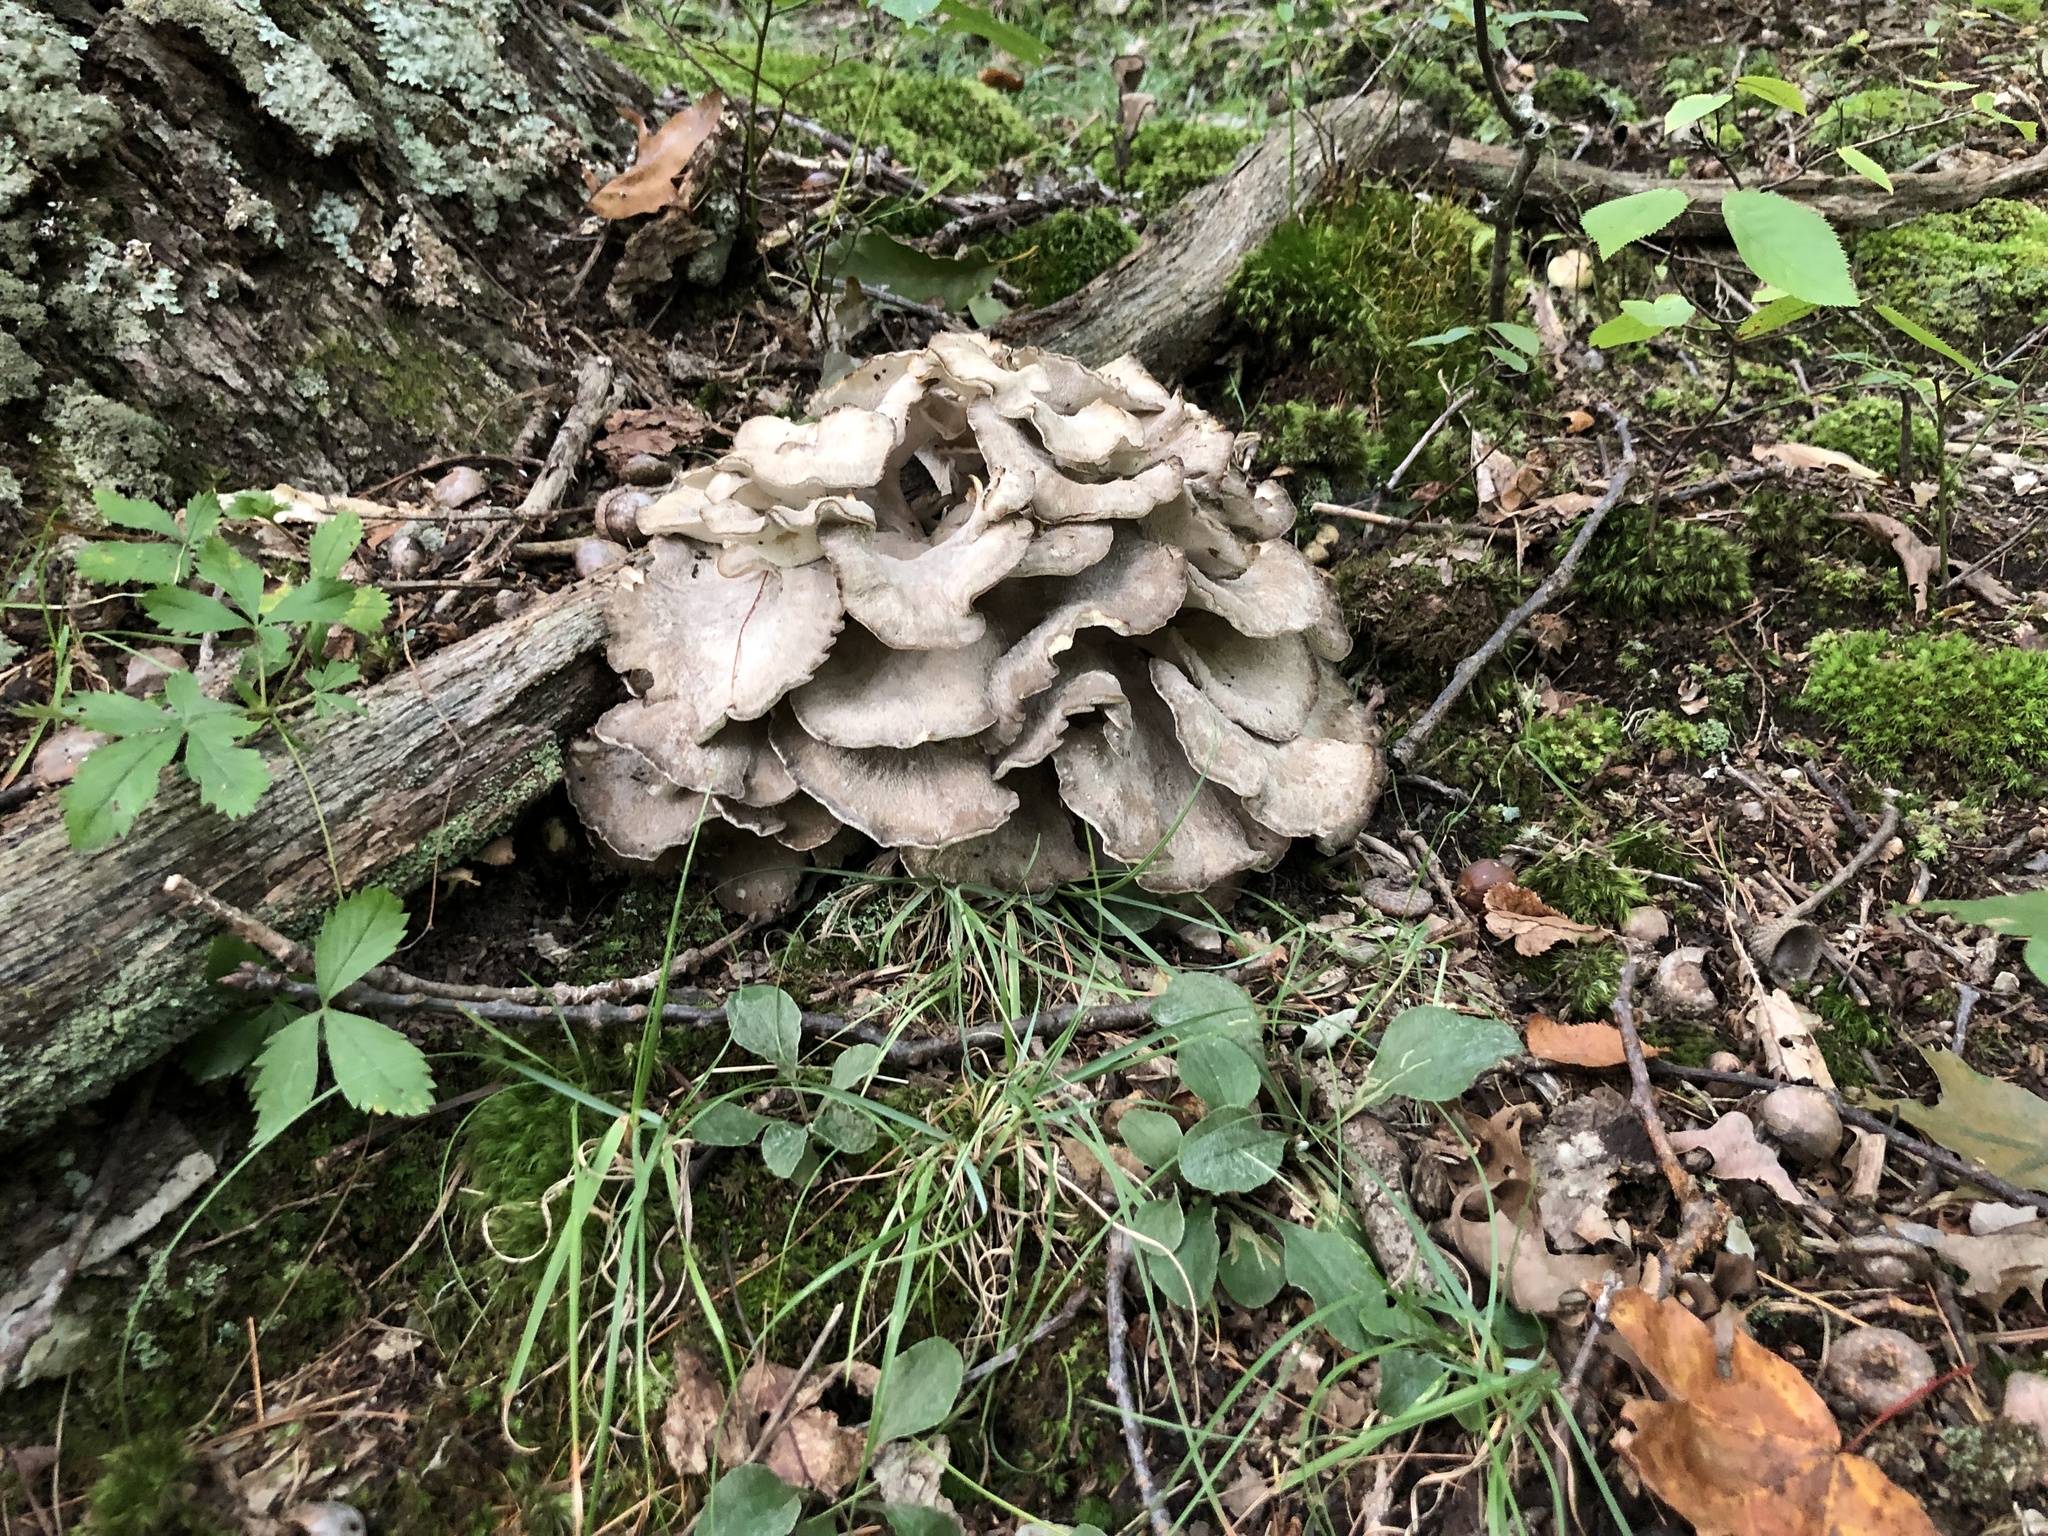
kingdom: Fungi
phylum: Basidiomycota
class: Agaricomycetes
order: Polyporales
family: Grifolaceae
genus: Grifola
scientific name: Grifola frondosa
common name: Hen of the woods
